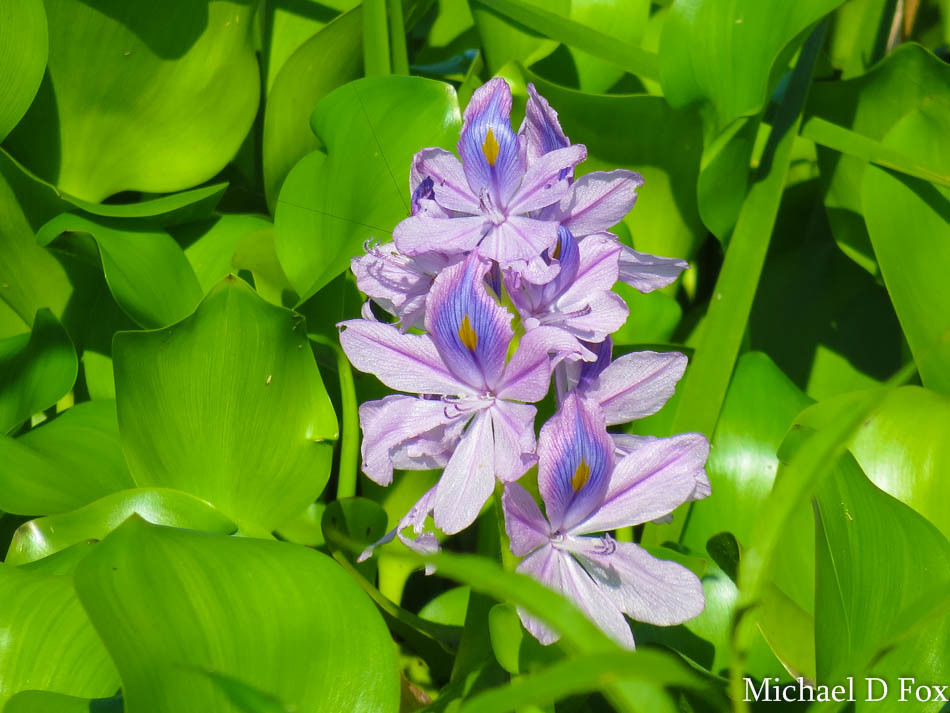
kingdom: Plantae
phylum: Tracheophyta
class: Liliopsida
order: Commelinales
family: Pontederiaceae
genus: Pontederia
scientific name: Pontederia crassipes
